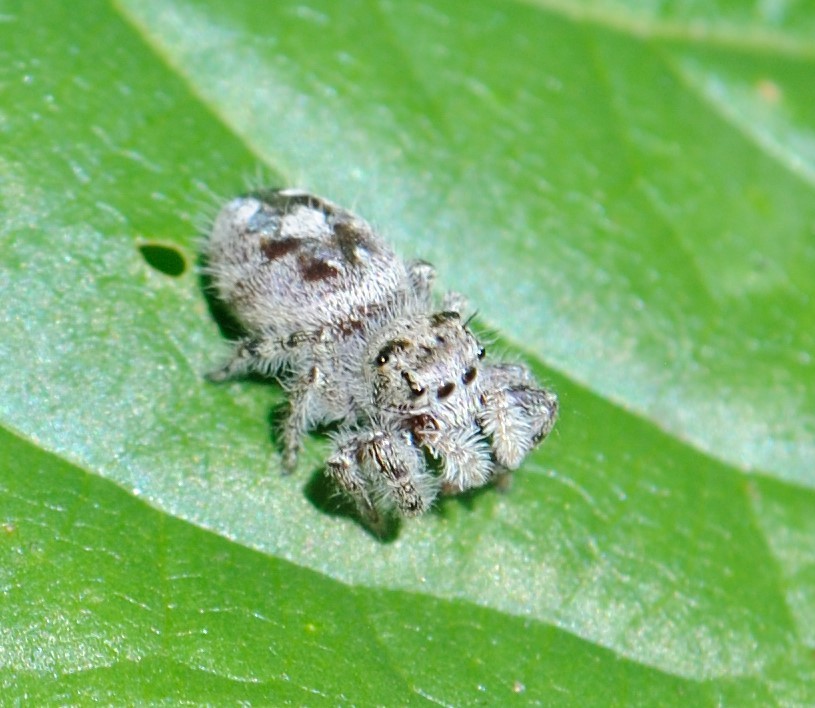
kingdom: Animalia
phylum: Arthropoda
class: Arachnida
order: Araneae
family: Salticidae
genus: Phidippus
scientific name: Phidippus putnami
